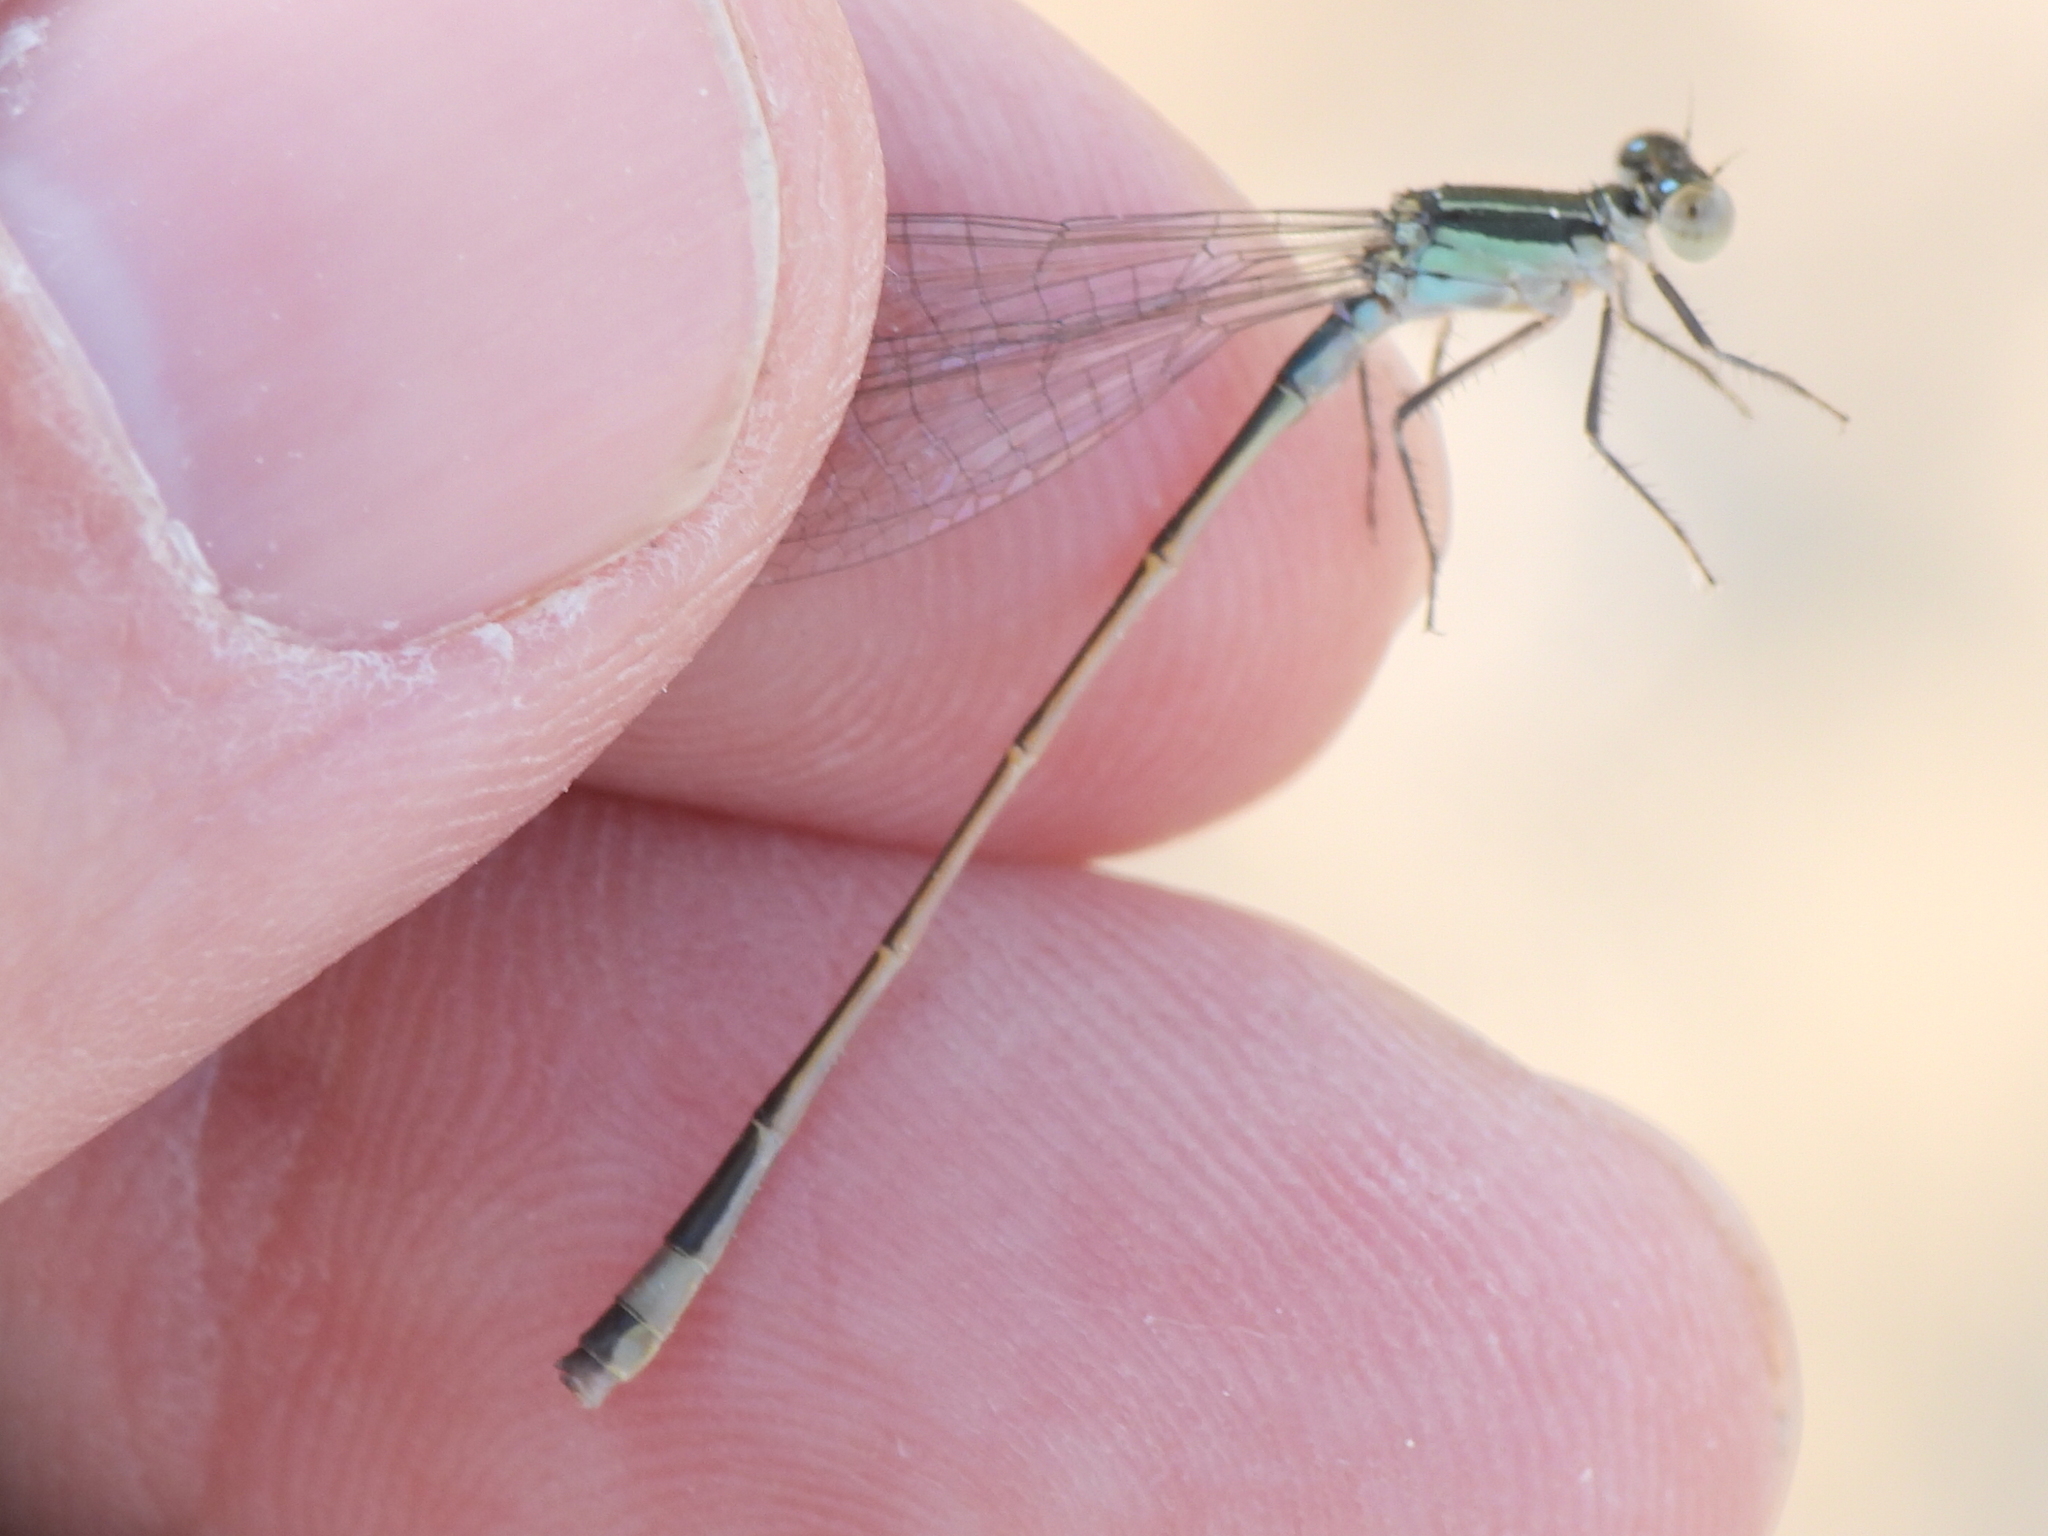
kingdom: Animalia
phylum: Arthropoda
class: Insecta
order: Odonata
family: Coenagrionidae
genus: Ischnura
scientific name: Ischnura evansi
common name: Desert bluetail
